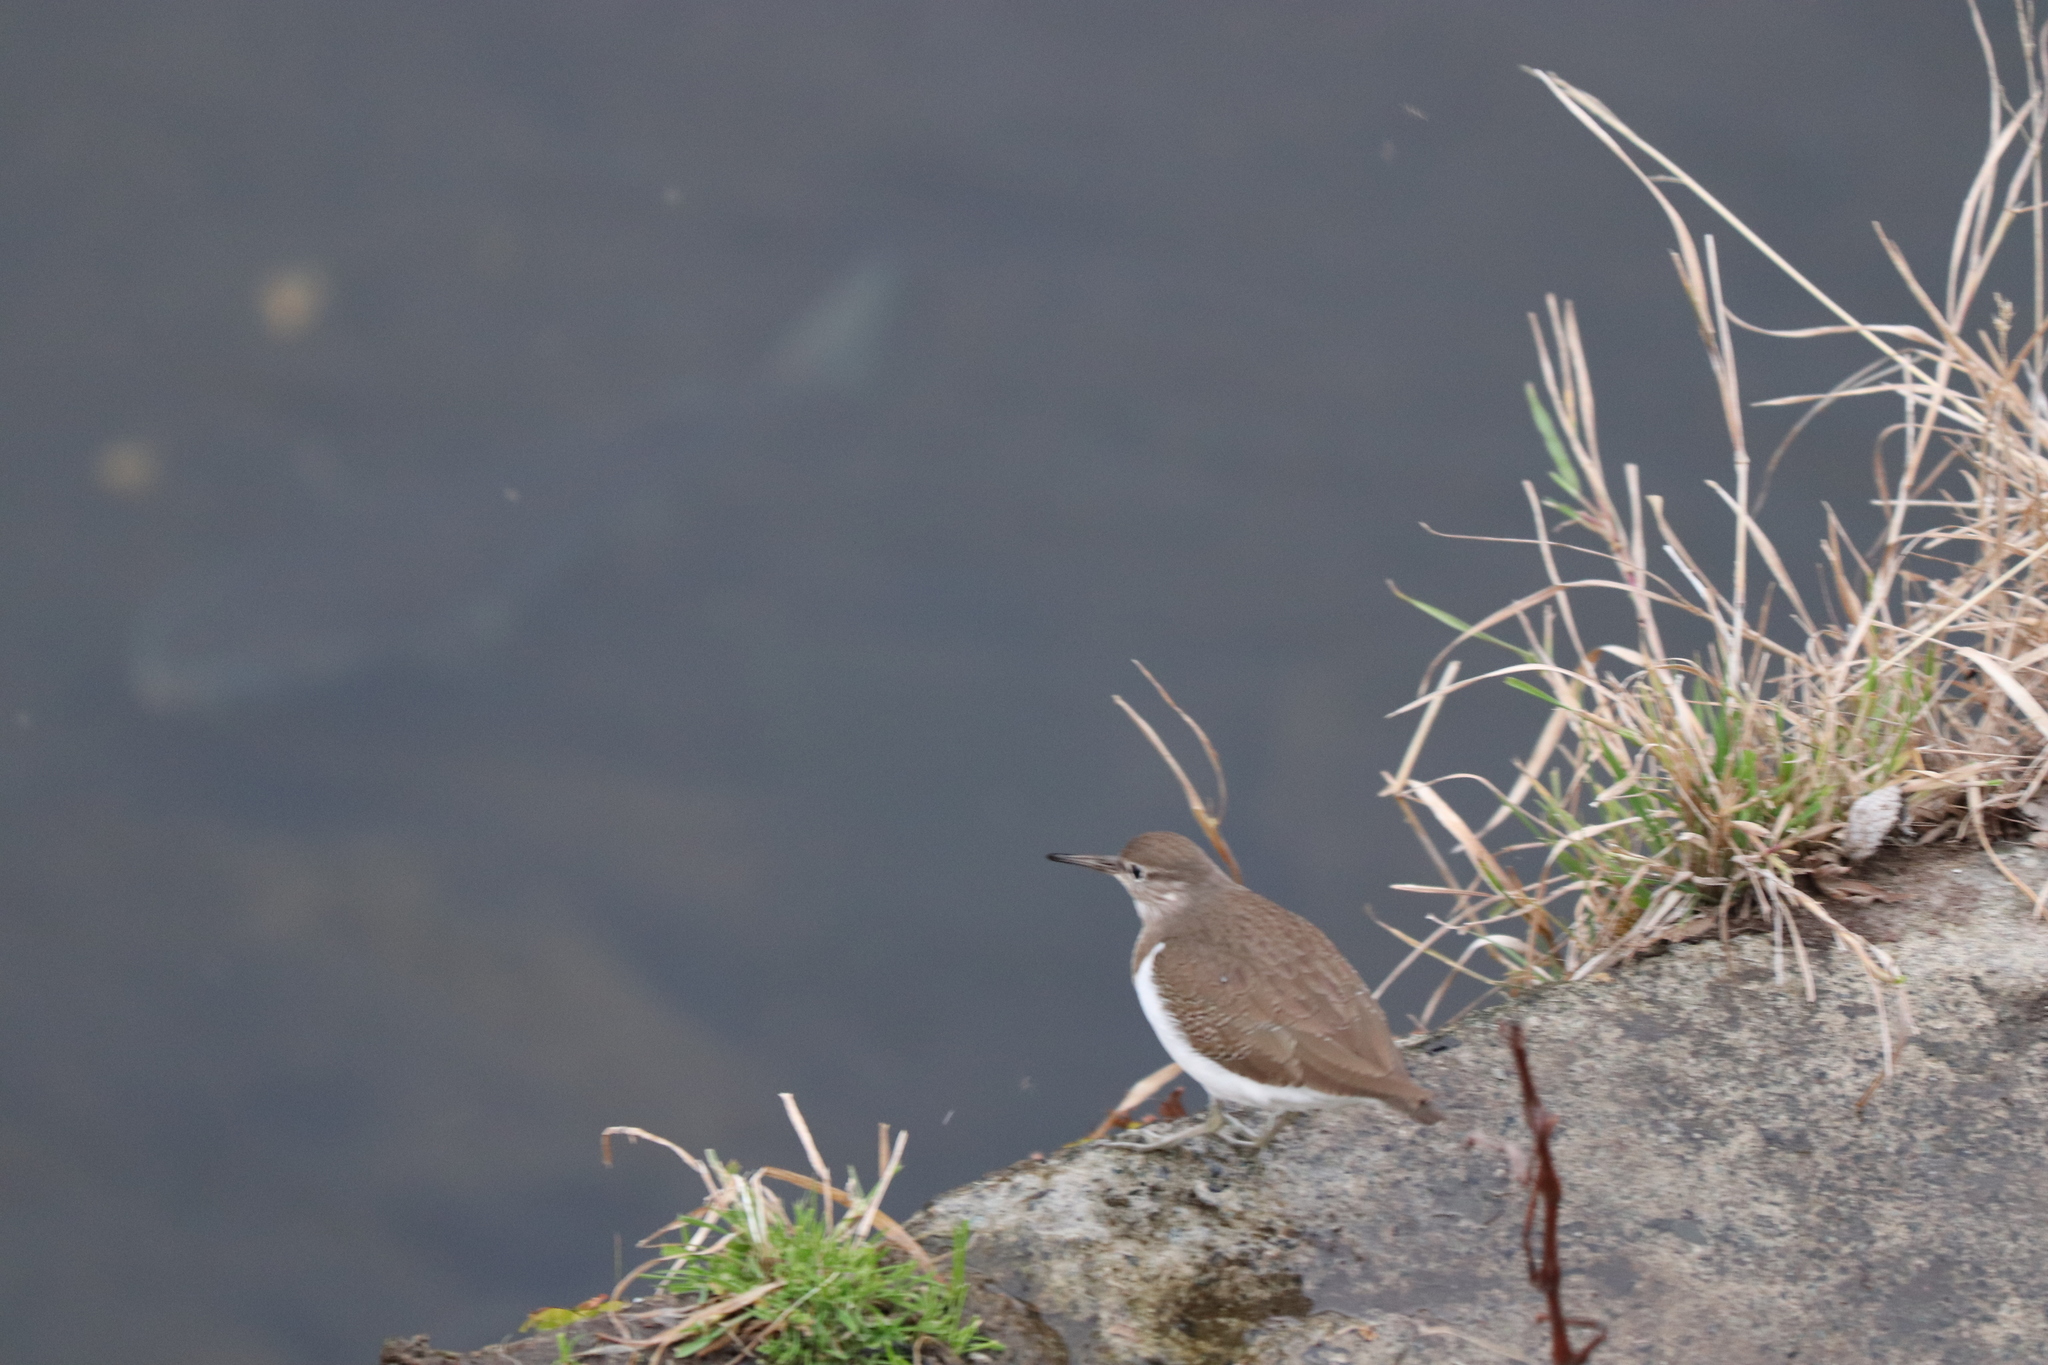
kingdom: Animalia
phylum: Chordata
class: Aves
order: Charadriiformes
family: Scolopacidae
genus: Actitis
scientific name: Actitis hypoleucos
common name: Common sandpiper
